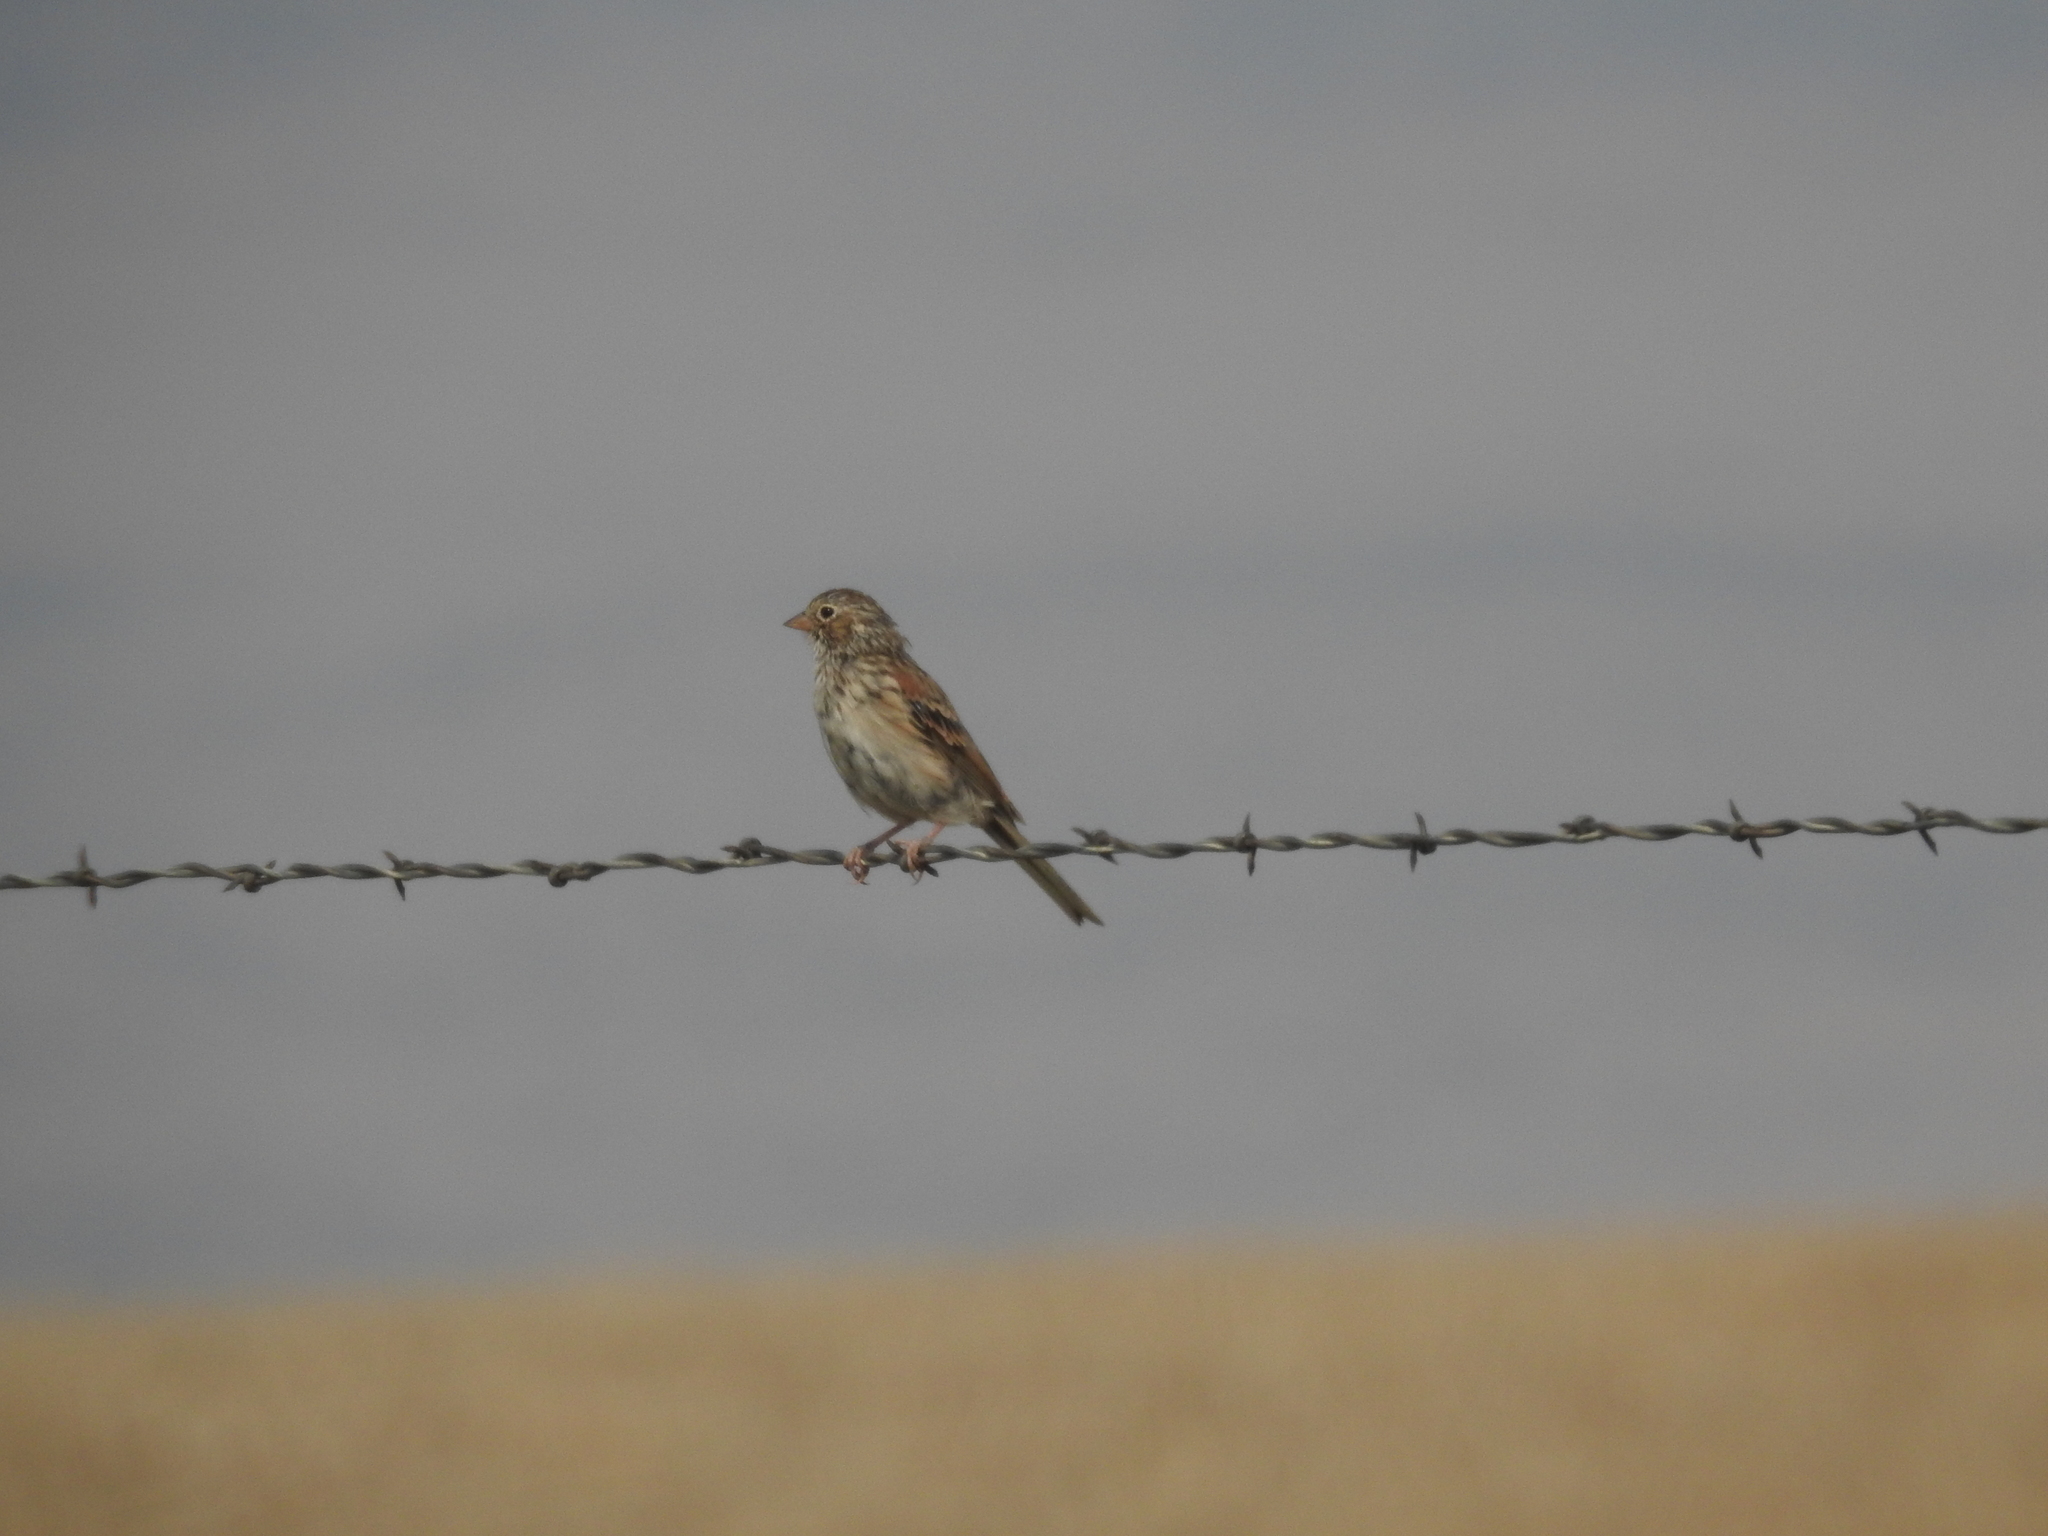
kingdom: Animalia
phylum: Chordata
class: Aves
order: Passeriformes
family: Passerellidae
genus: Pooecetes
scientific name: Pooecetes gramineus
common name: Vesper sparrow
